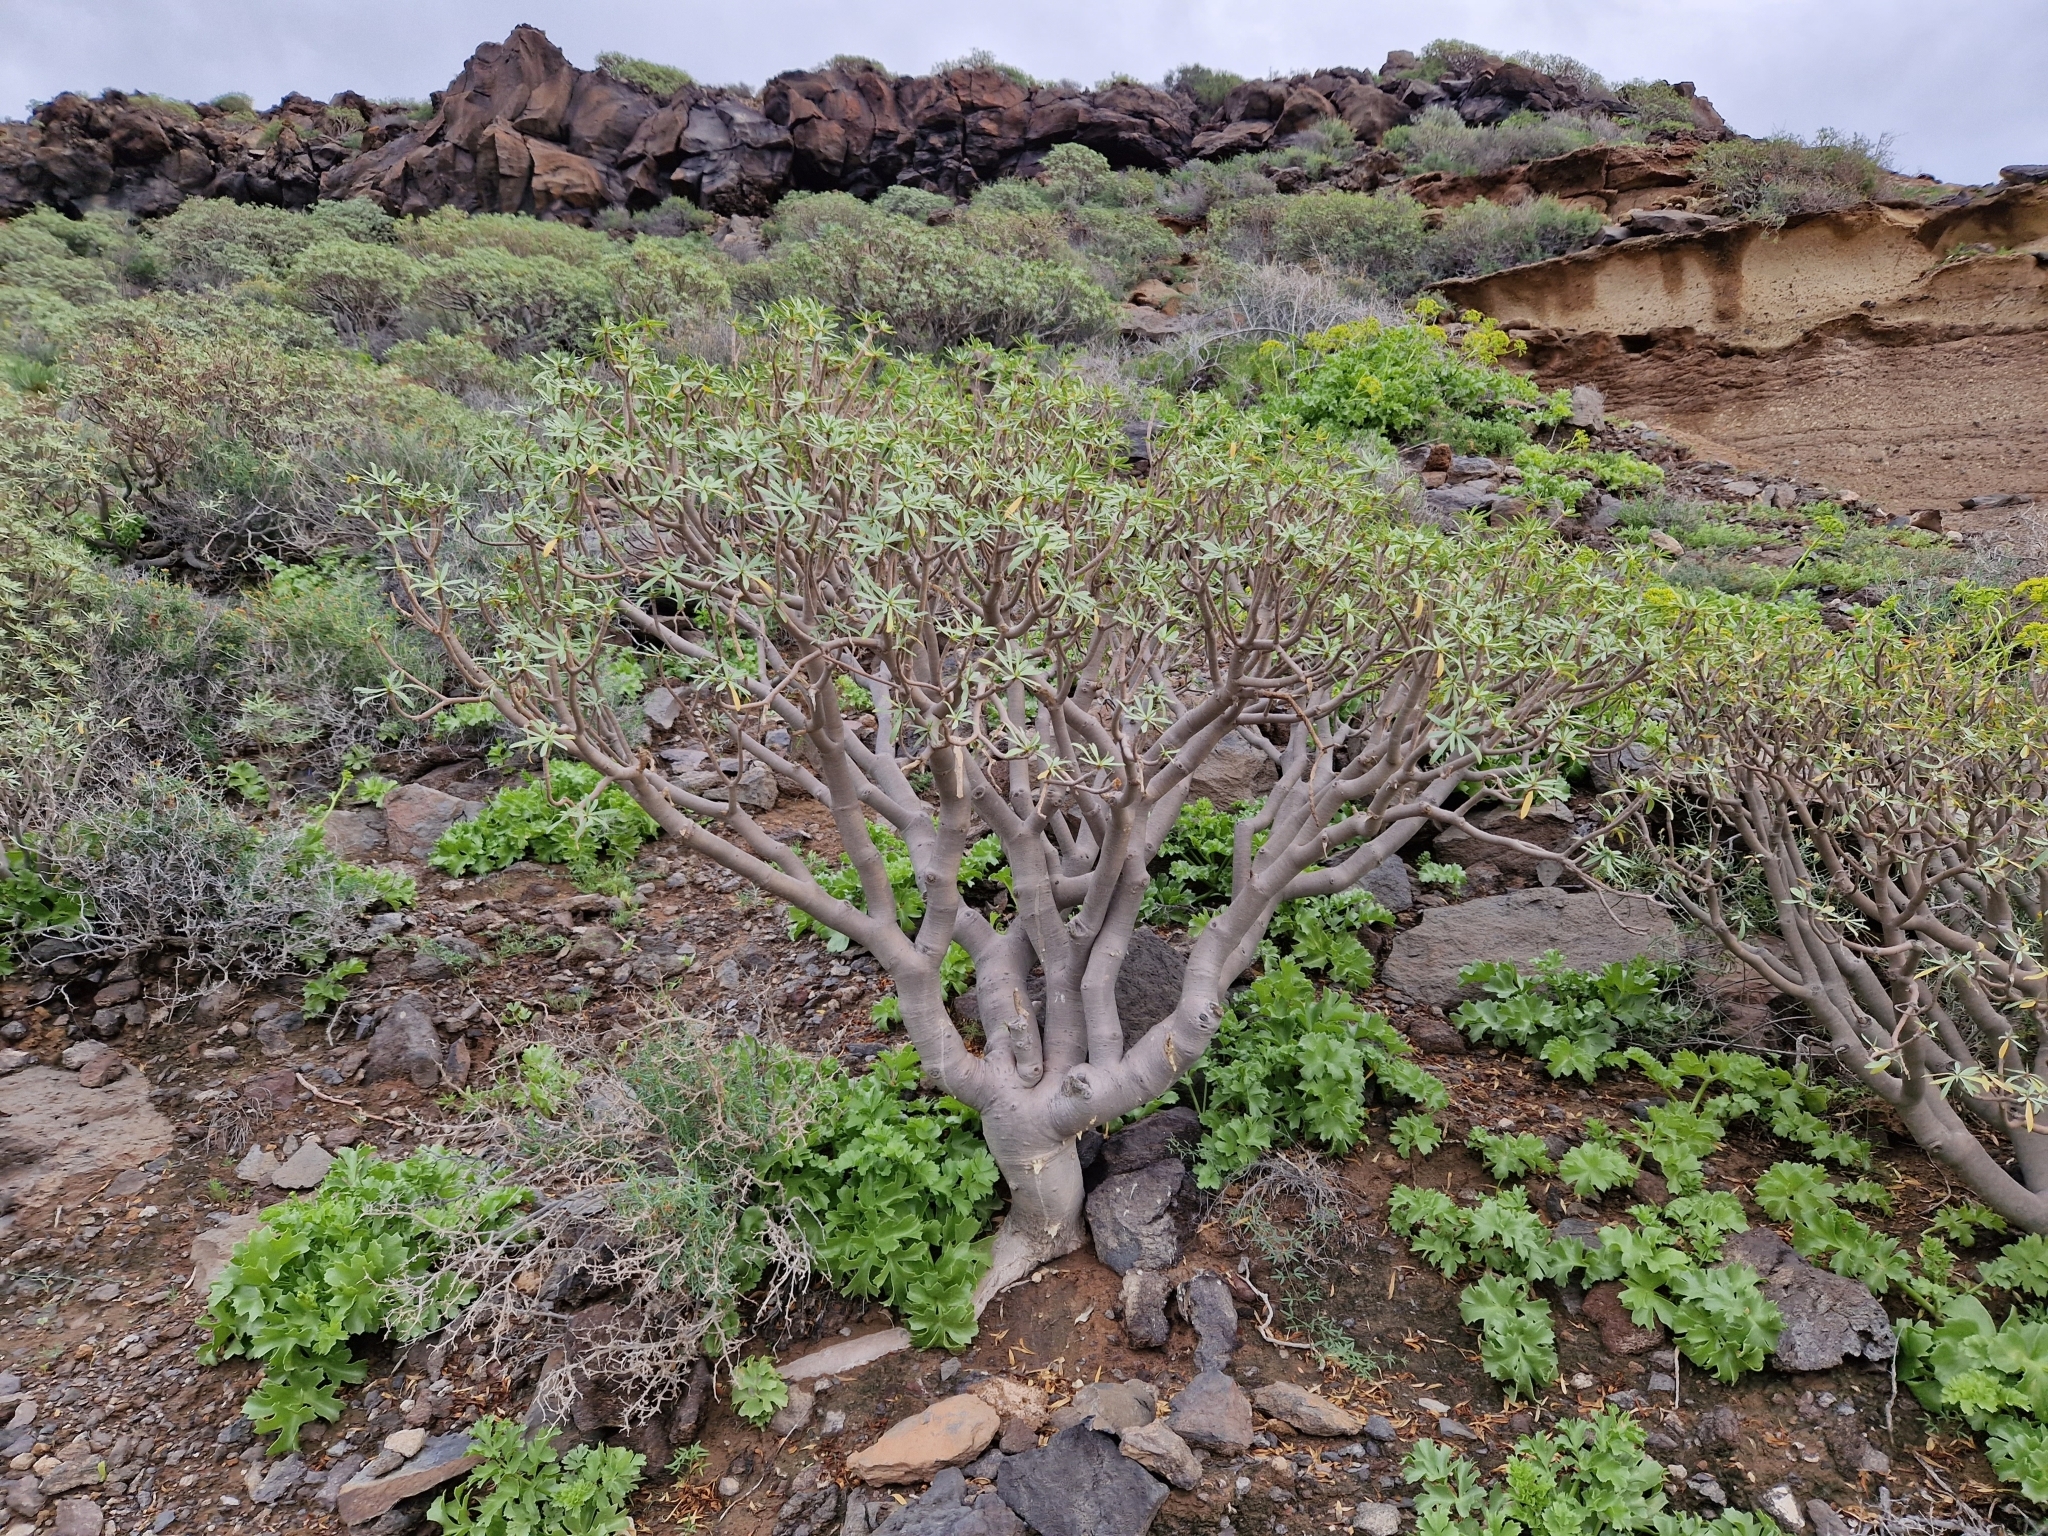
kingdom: Plantae
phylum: Tracheophyta
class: Magnoliopsida
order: Malpighiales
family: Euphorbiaceae
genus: Euphorbia
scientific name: Euphorbia balsamifera
